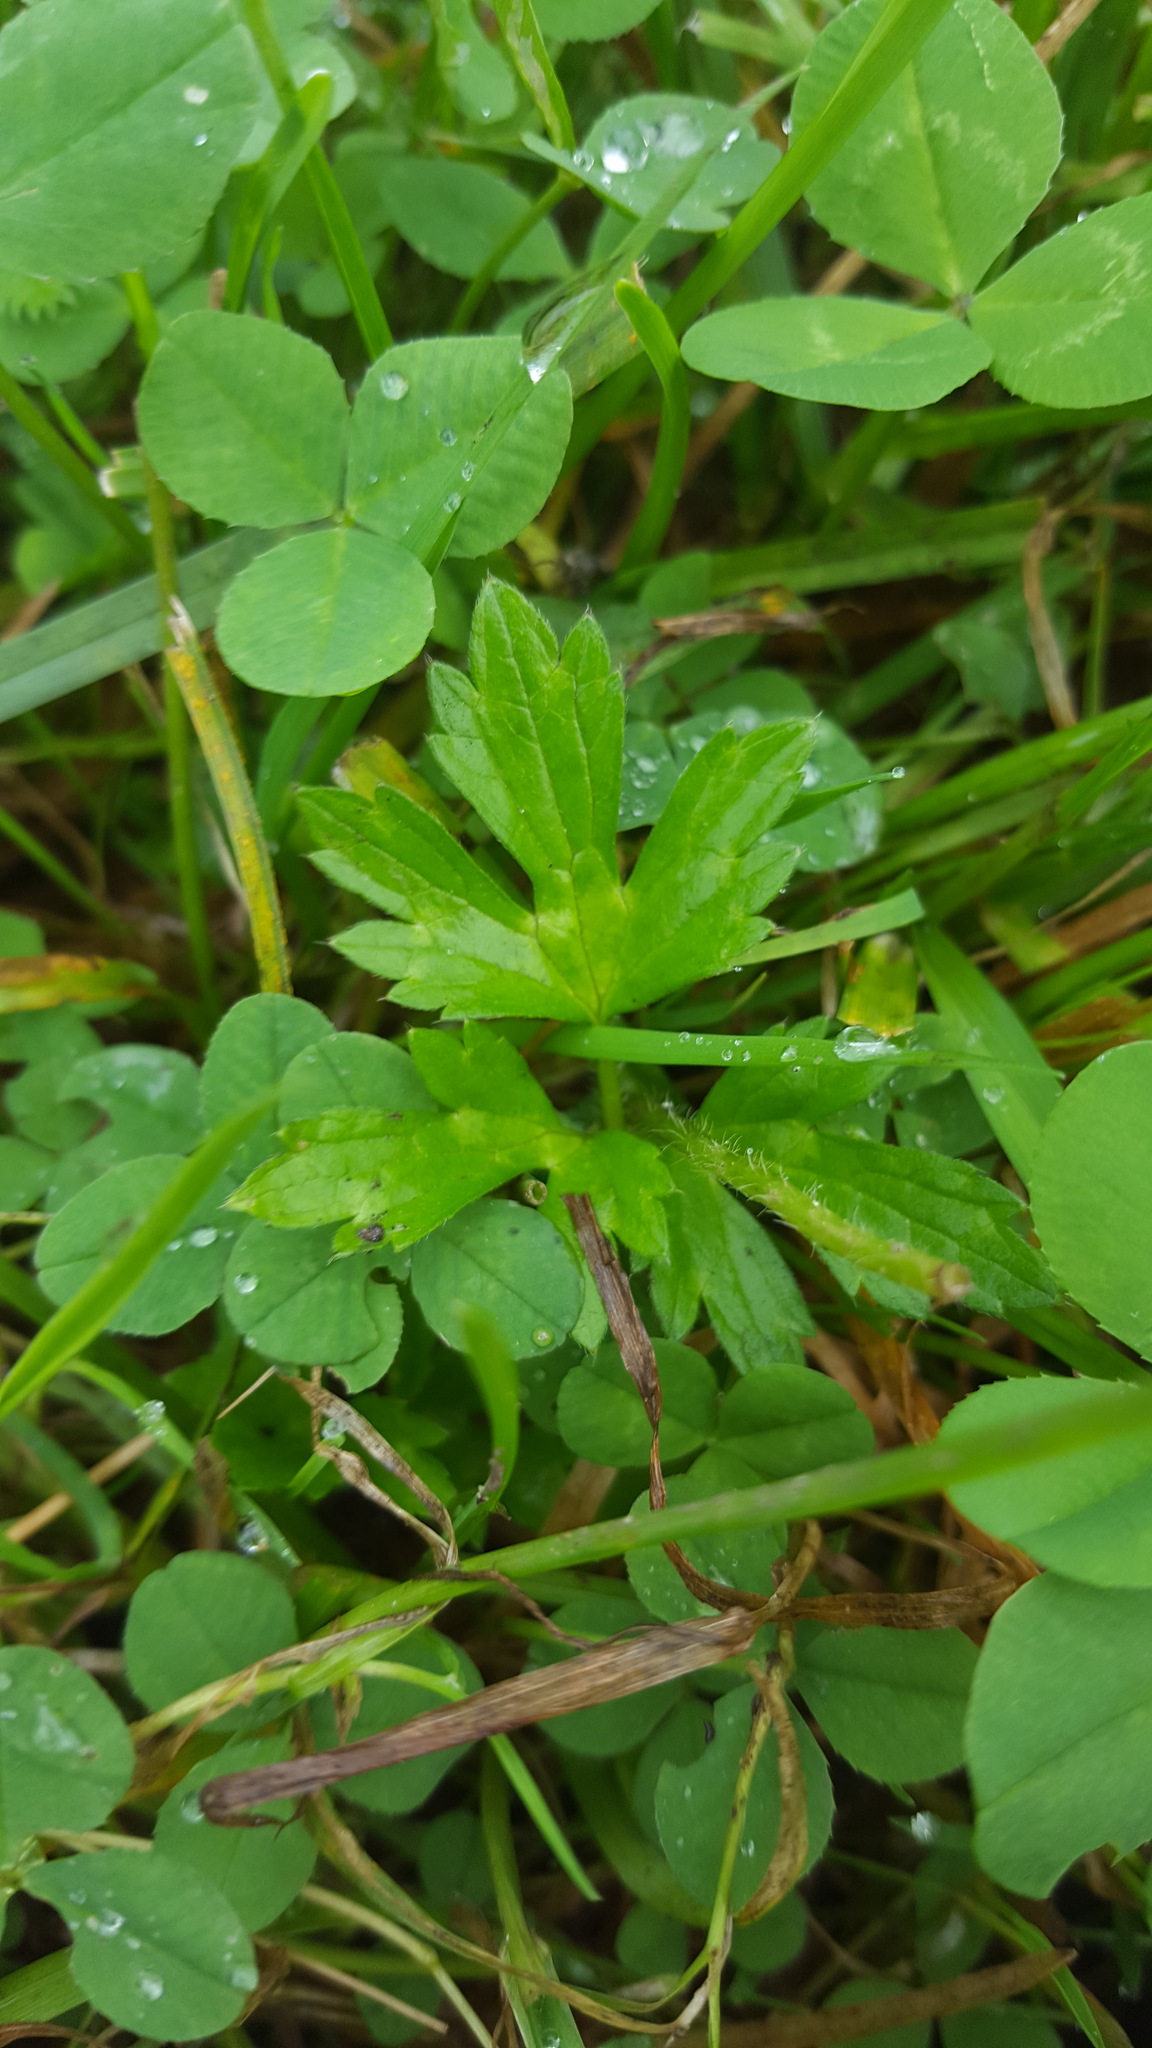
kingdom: Plantae
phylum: Tracheophyta
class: Magnoliopsida
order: Ranunculales
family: Ranunculaceae
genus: Ranunculus
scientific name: Ranunculus repens
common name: Creeping buttercup
